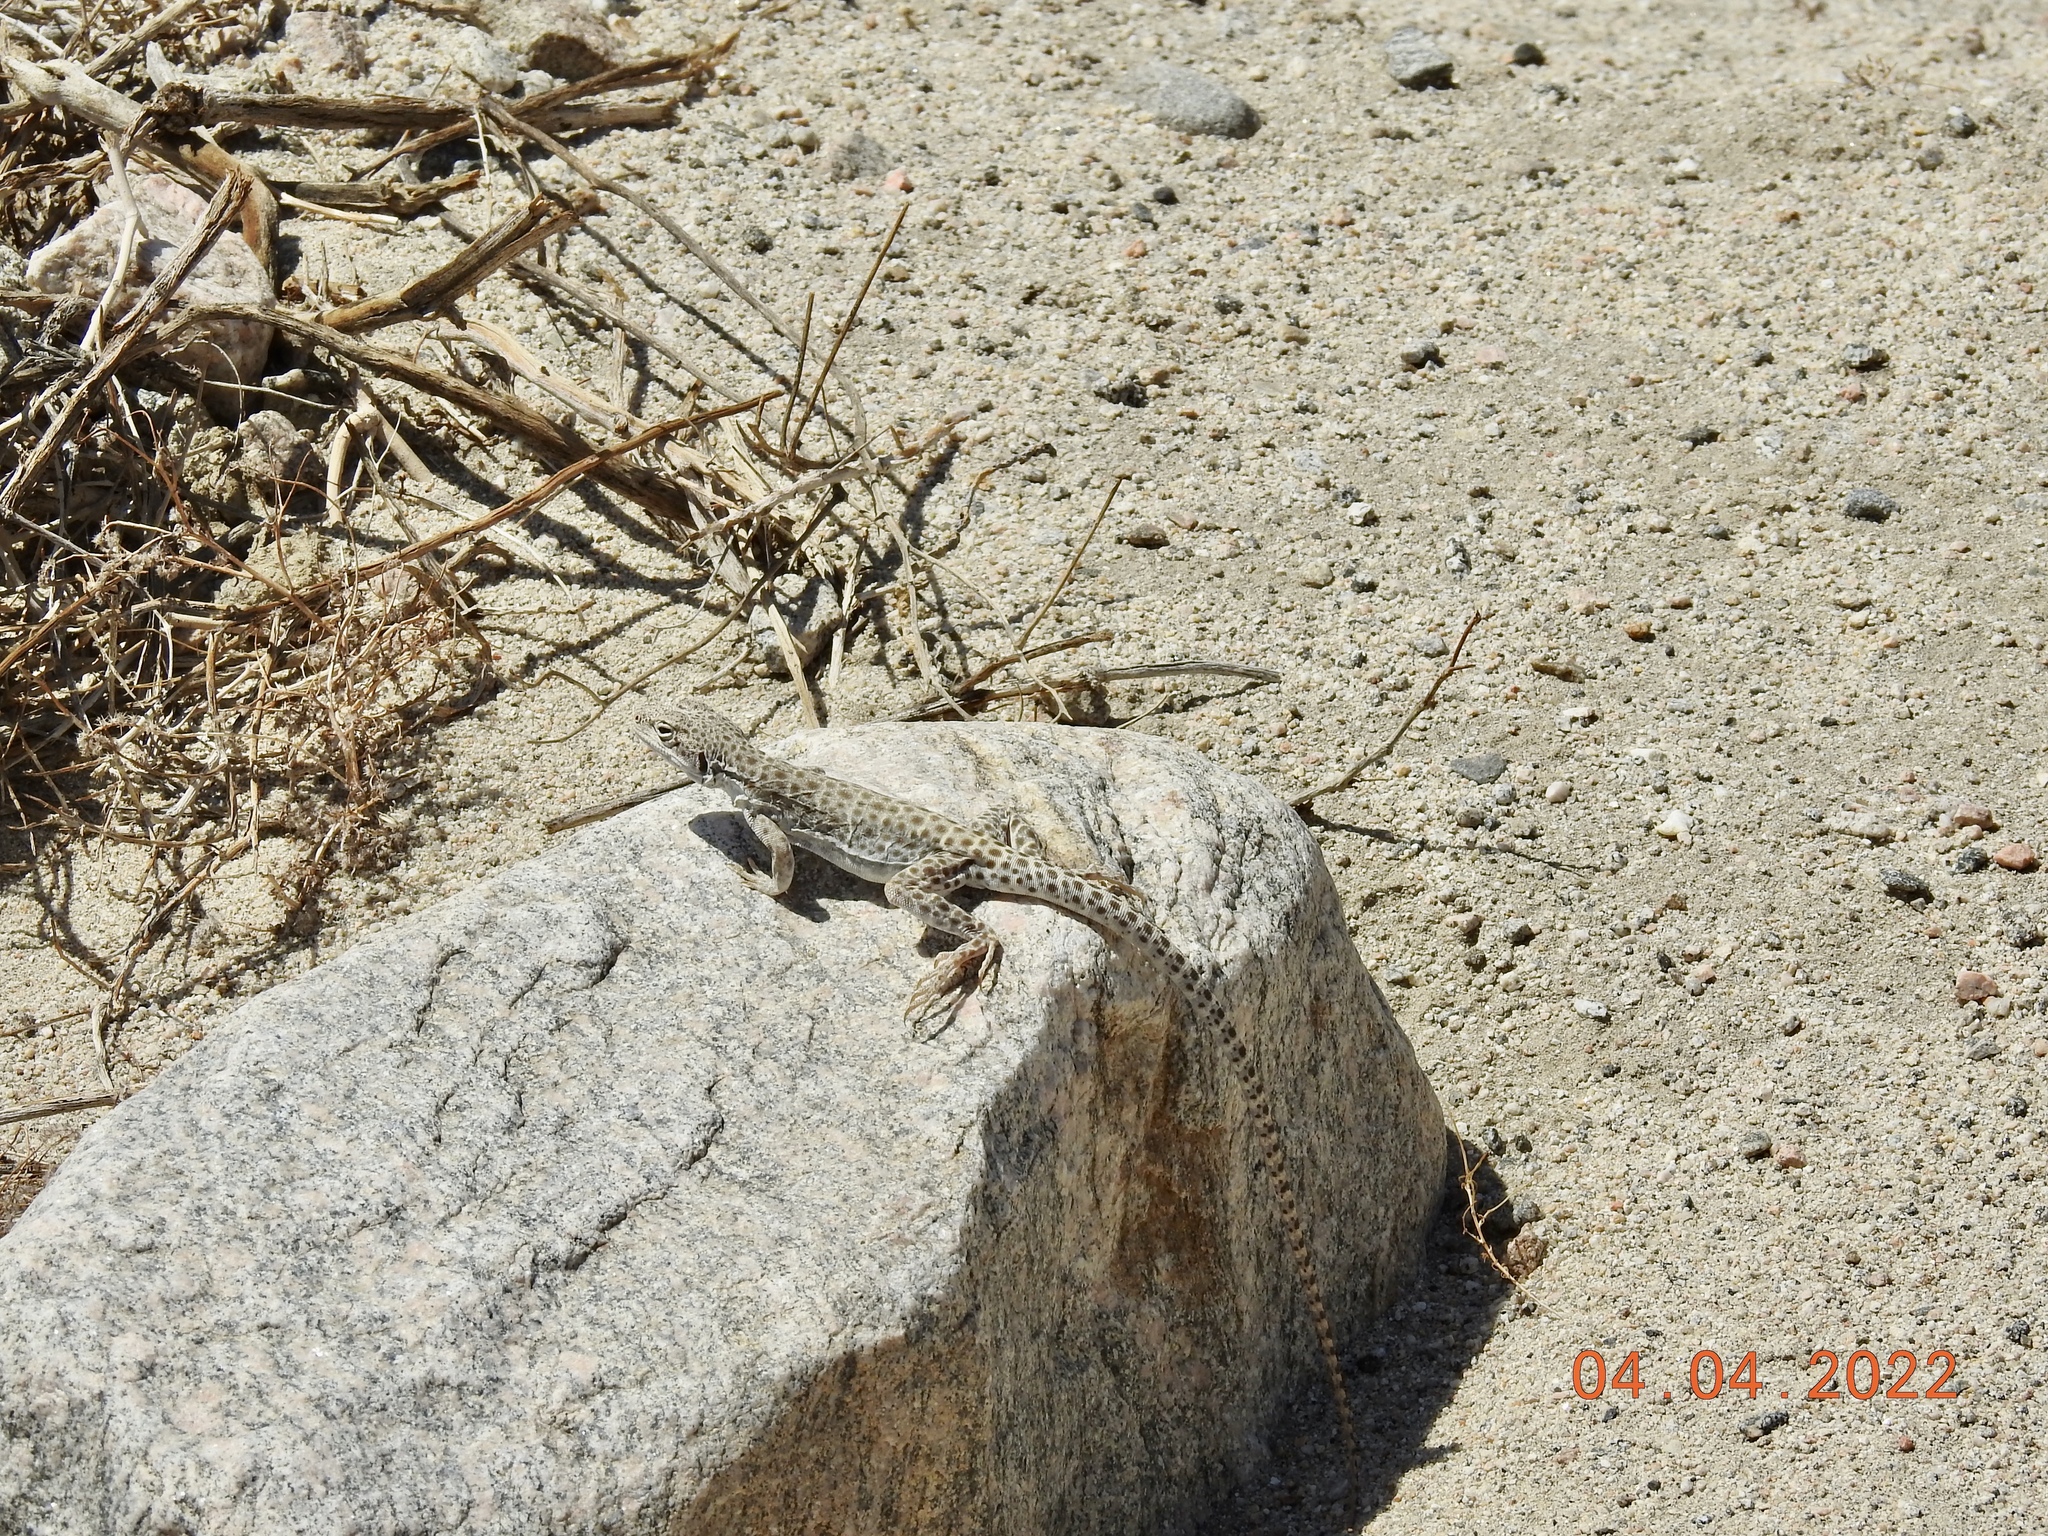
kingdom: Animalia
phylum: Chordata
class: Squamata
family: Crotaphytidae
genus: Gambelia
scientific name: Gambelia wislizenii
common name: Longnose leopard lizard
